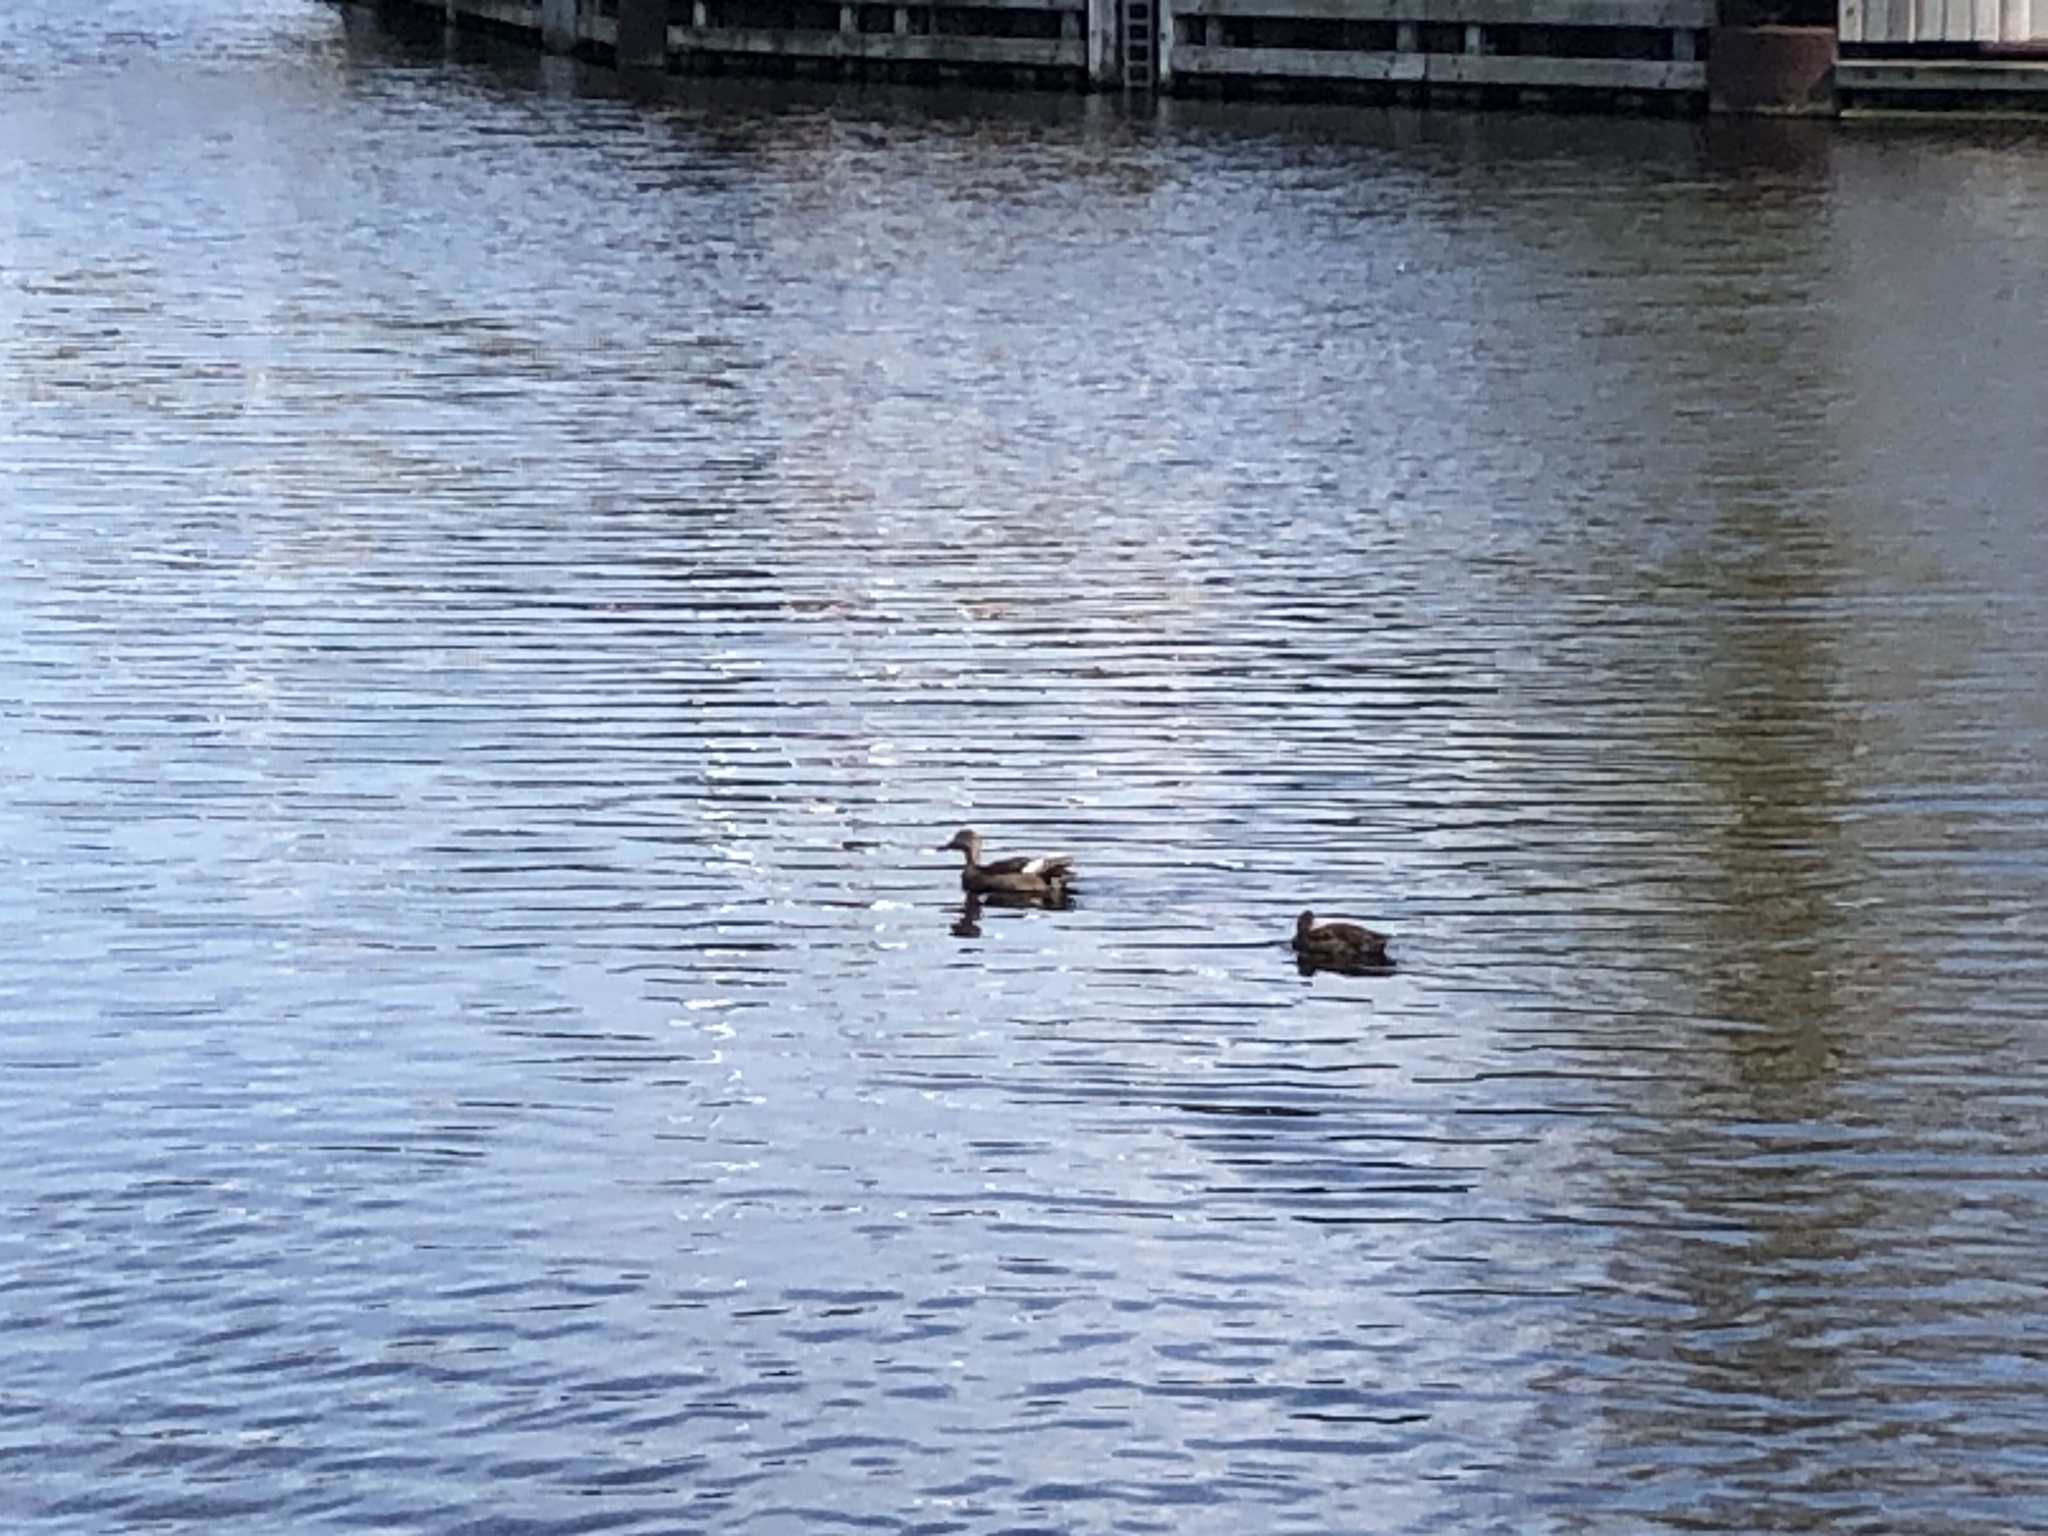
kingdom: Animalia
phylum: Chordata
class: Aves
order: Anseriformes
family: Anatidae
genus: Mareca
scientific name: Mareca strepera
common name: Gadwall
